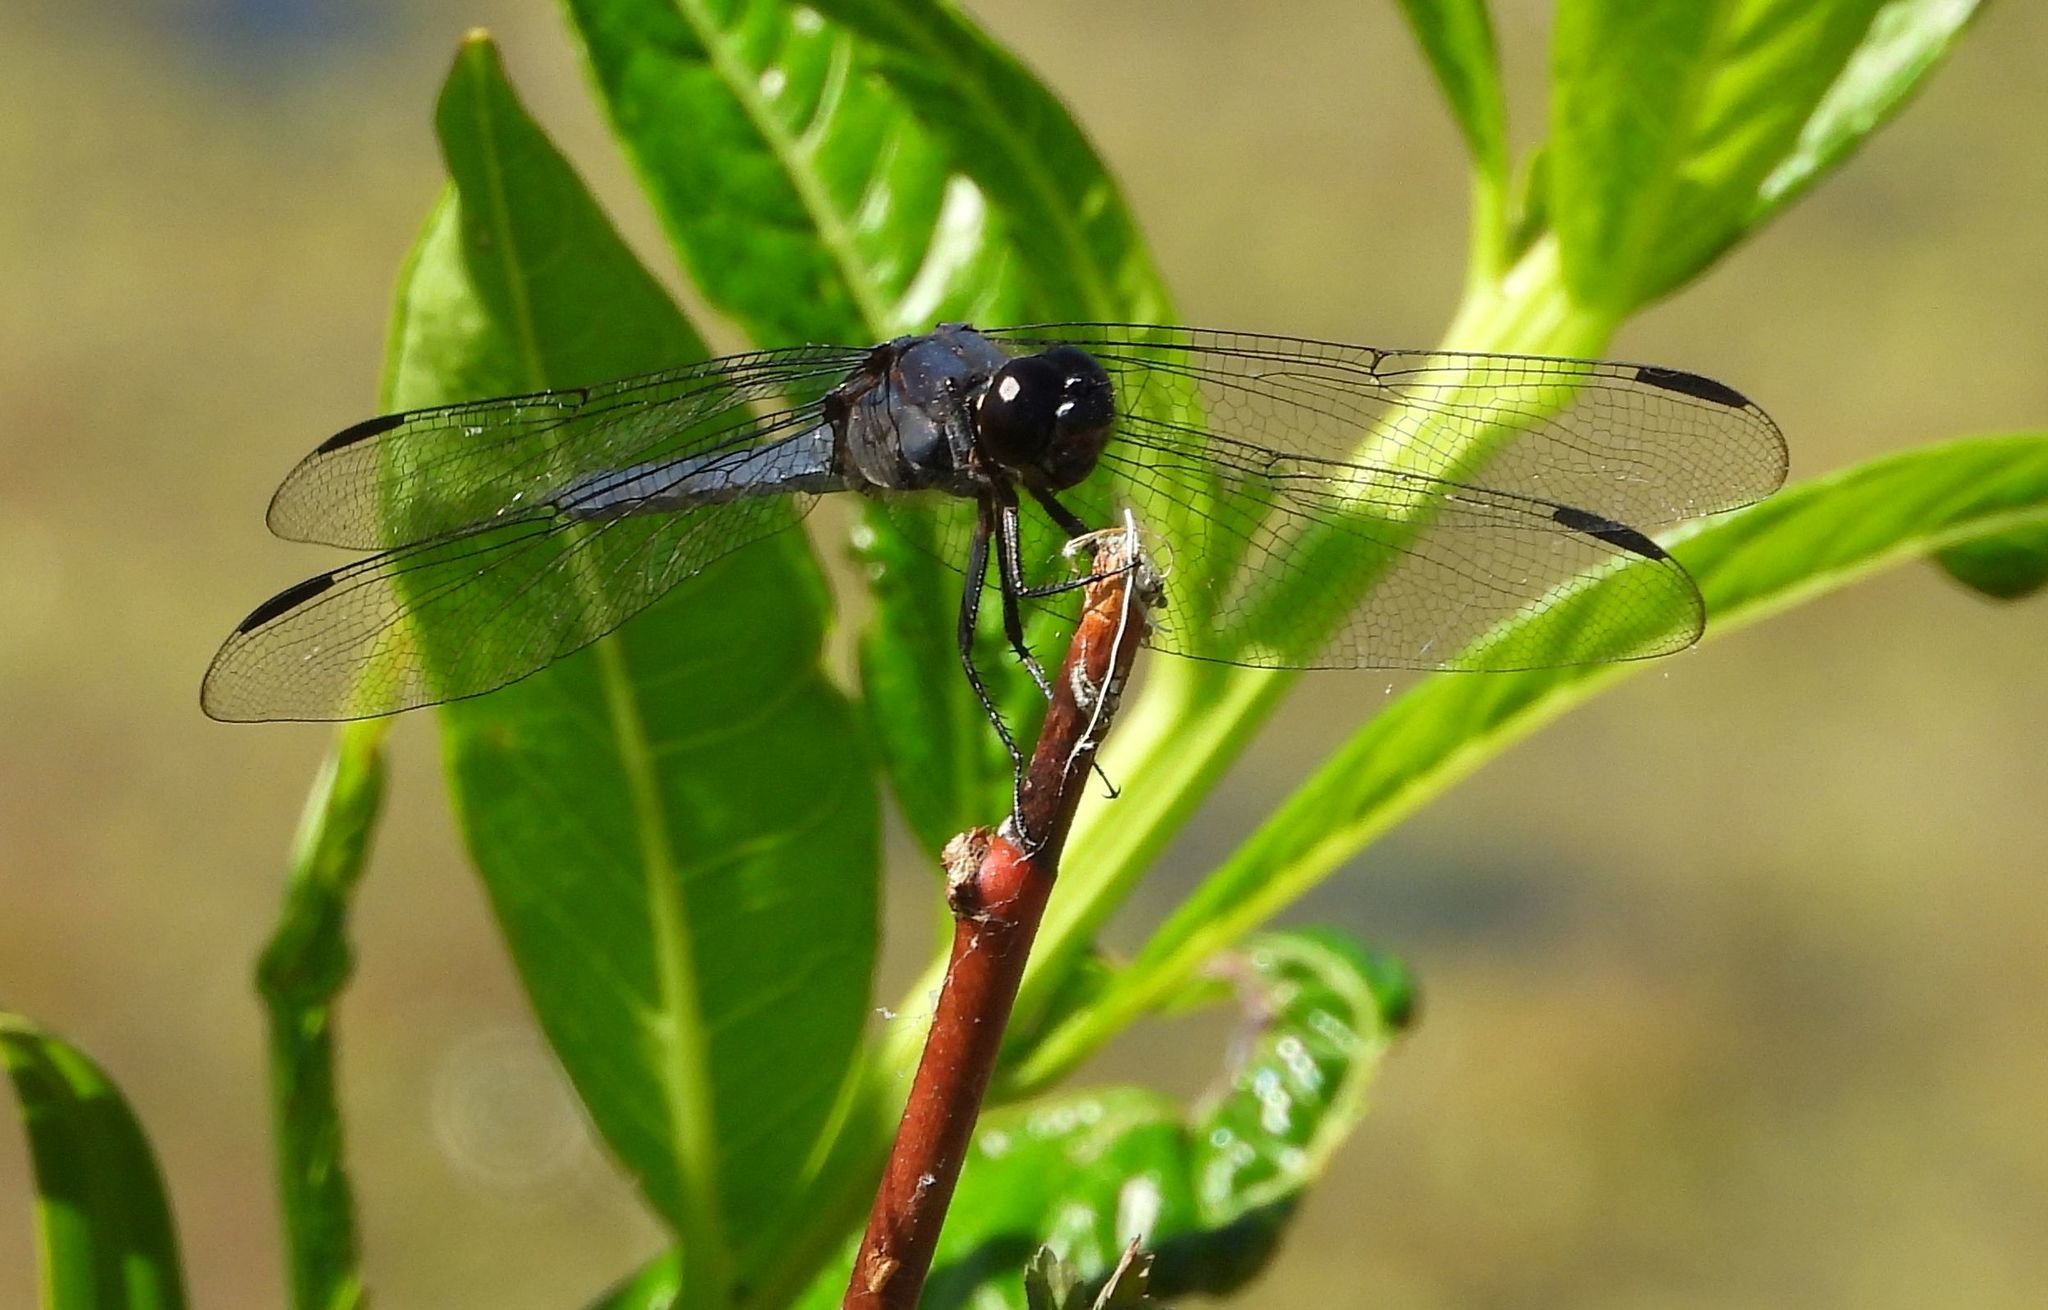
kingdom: Animalia
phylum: Arthropoda
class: Insecta
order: Odonata
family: Libellulidae
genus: Libellula
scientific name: Libellula incesta
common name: Slaty skimmer
